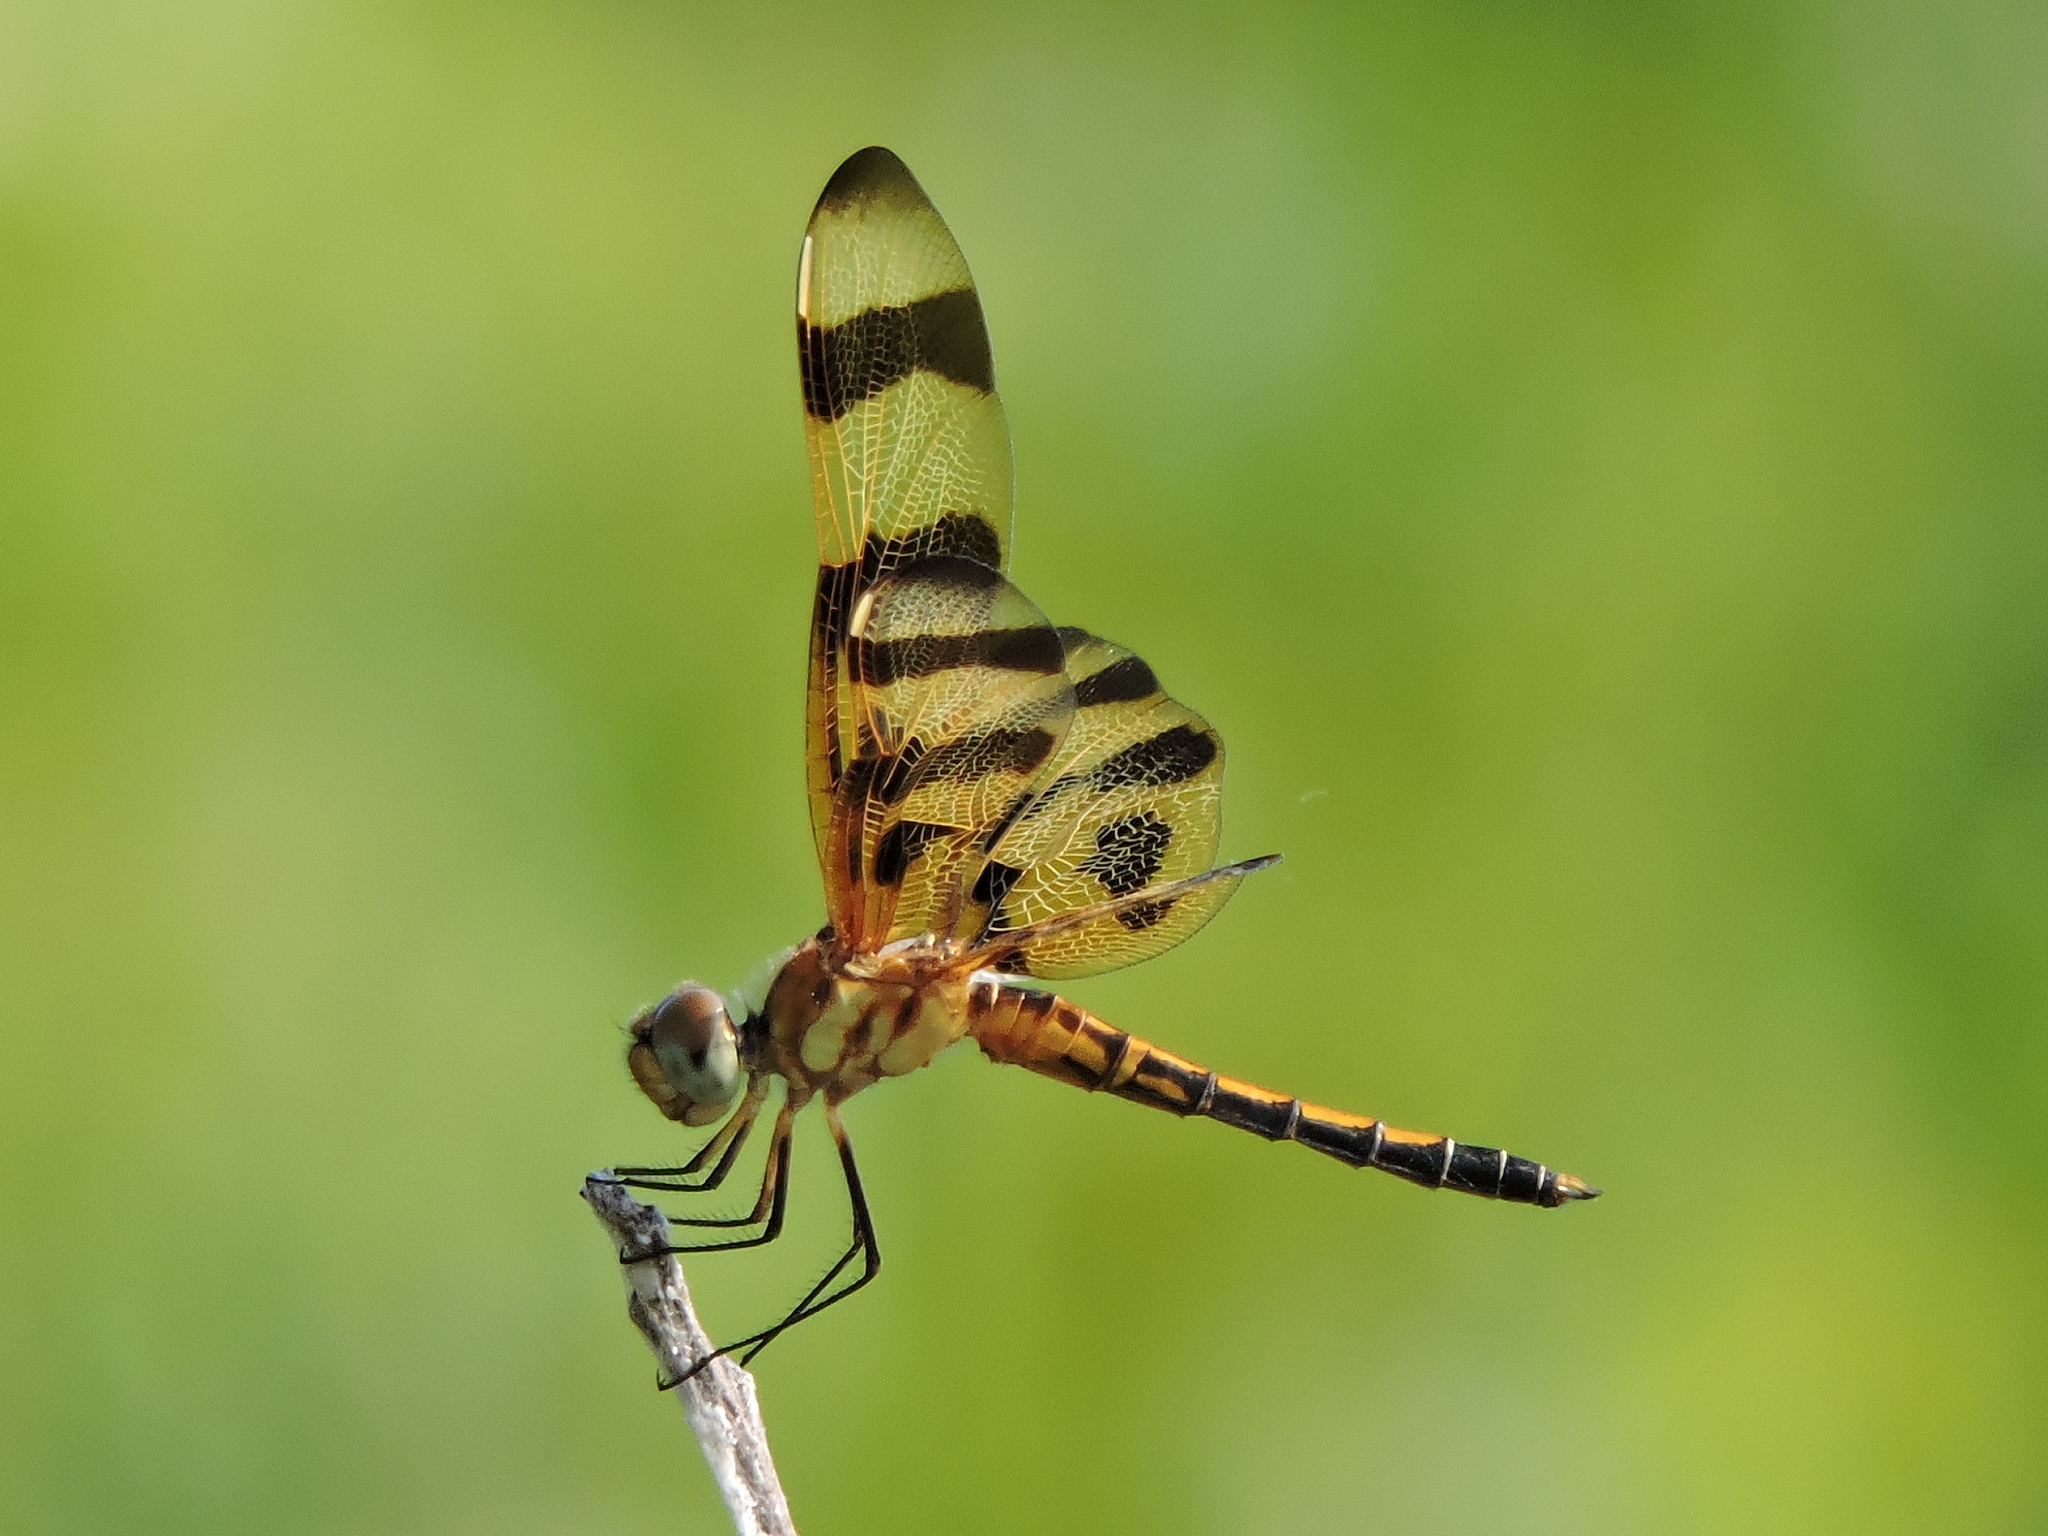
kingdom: Animalia
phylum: Arthropoda
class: Insecta
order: Odonata
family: Libellulidae
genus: Celithemis
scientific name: Celithemis eponina
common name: Halloween pennant
